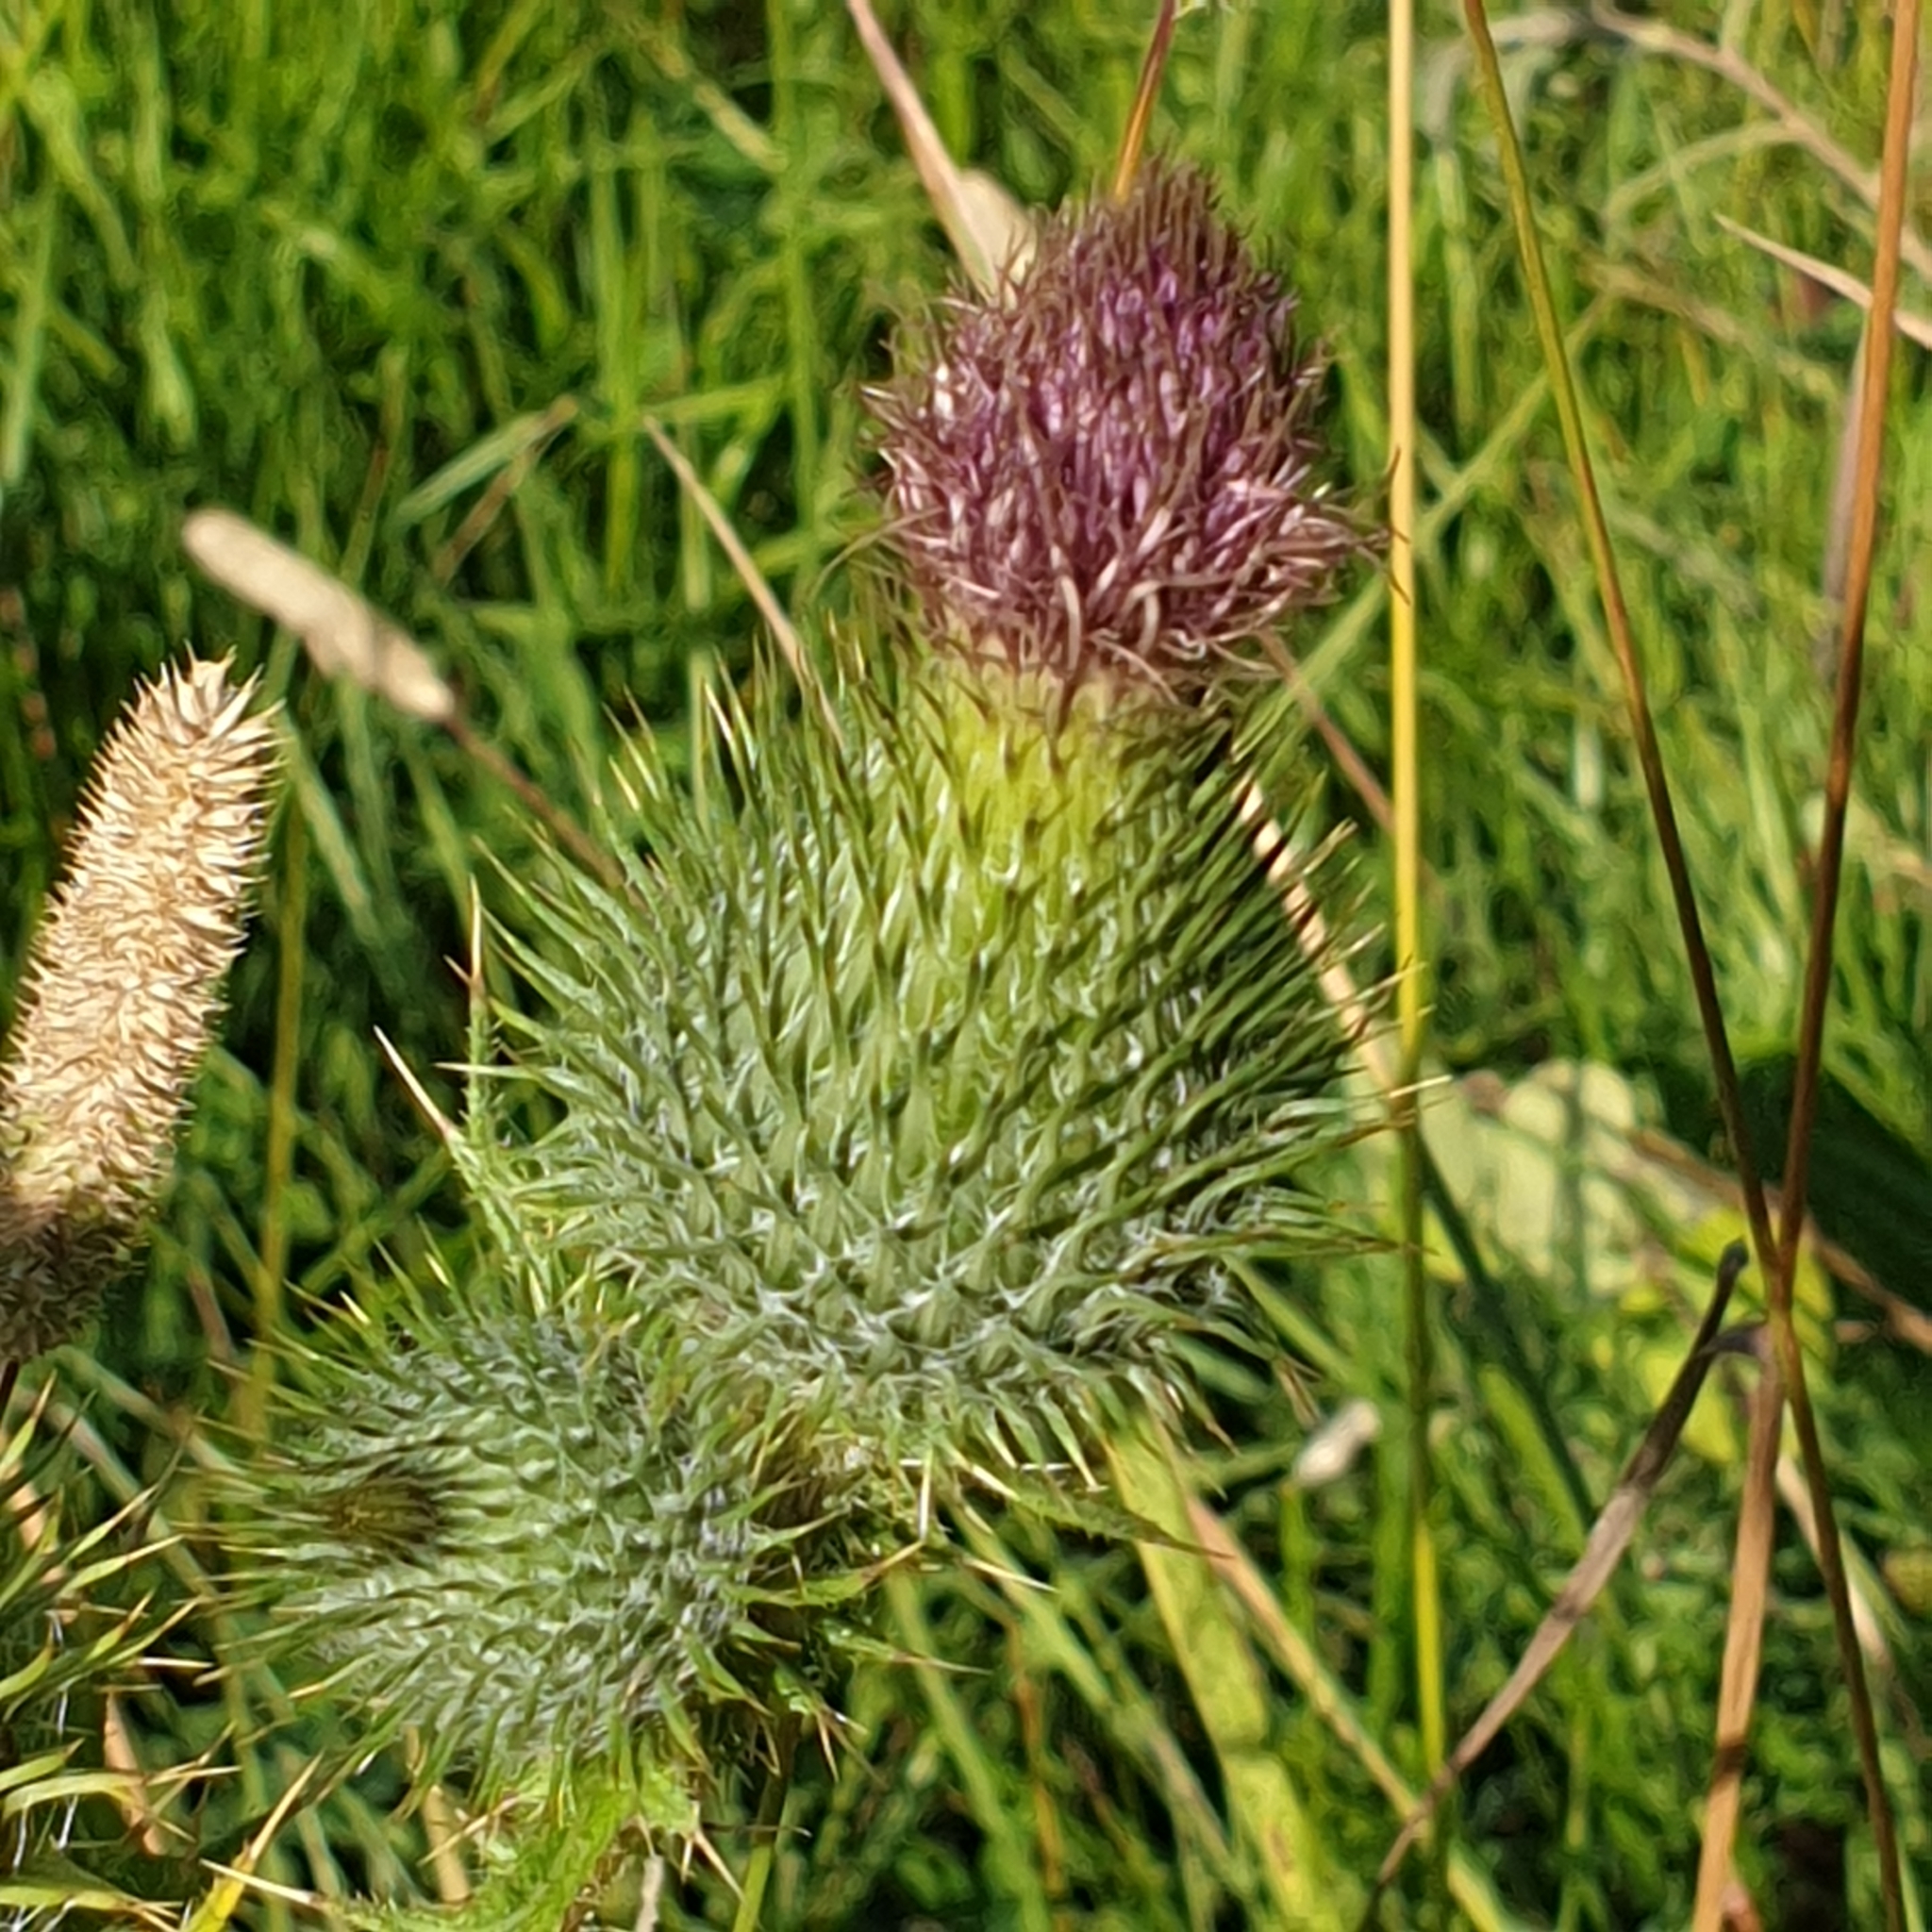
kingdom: Plantae
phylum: Tracheophyta
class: Magnoliopsida
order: Asterales
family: Asteraceae
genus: Cirsium
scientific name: Cirsium vulgare
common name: Bull thistle
